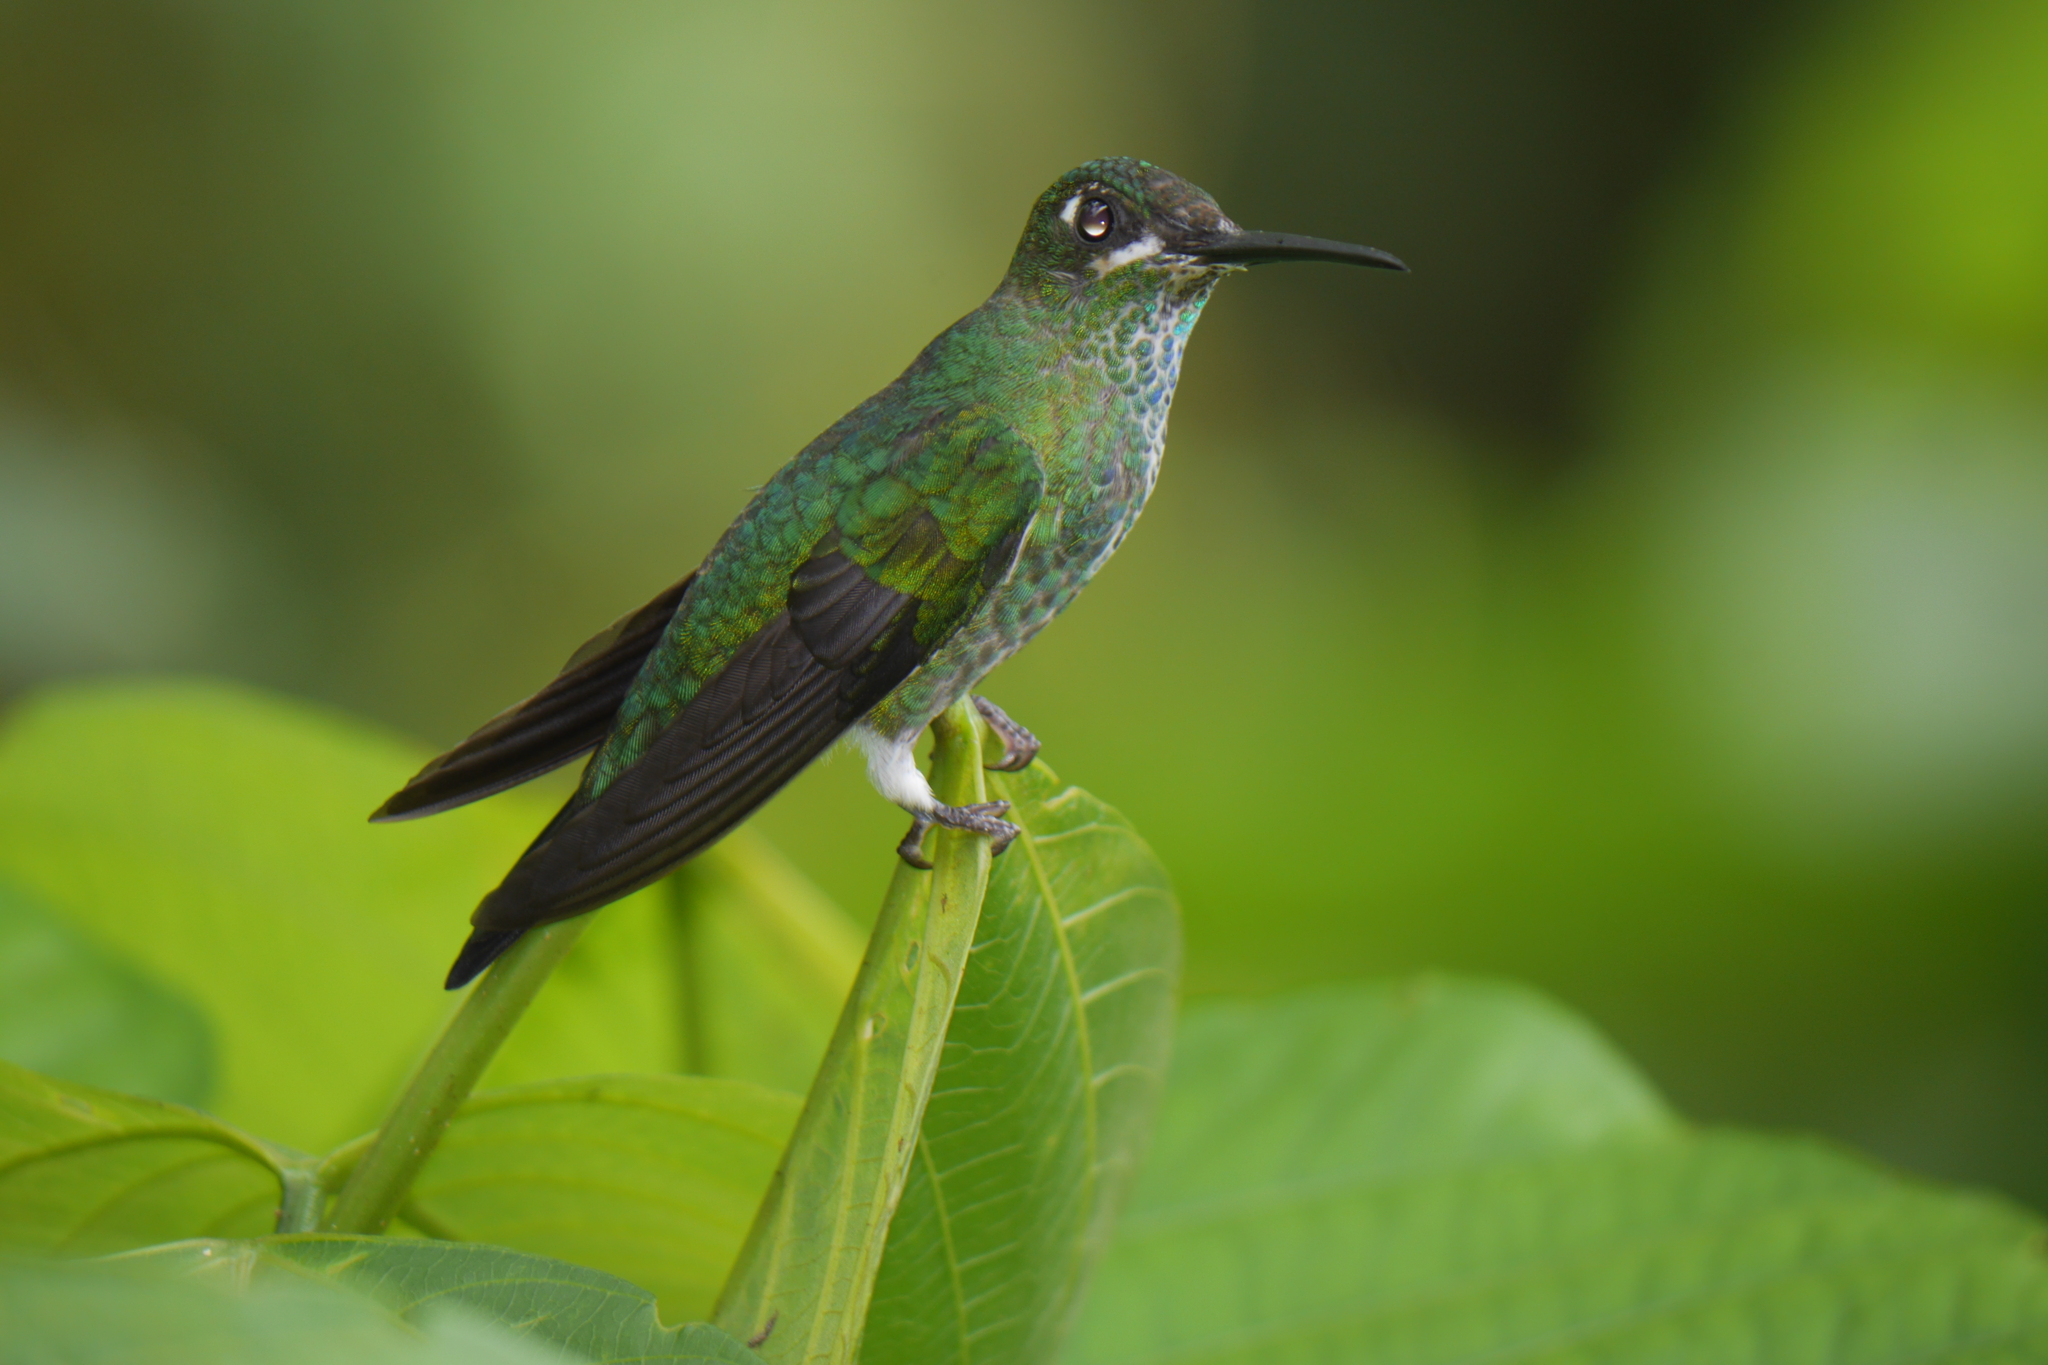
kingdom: Animalia
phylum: Chordata
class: Aves
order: Apodiformes
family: Trochilidae
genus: Heliodoxa
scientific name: Heliodoxa jacula
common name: Green-crowned brilliant
